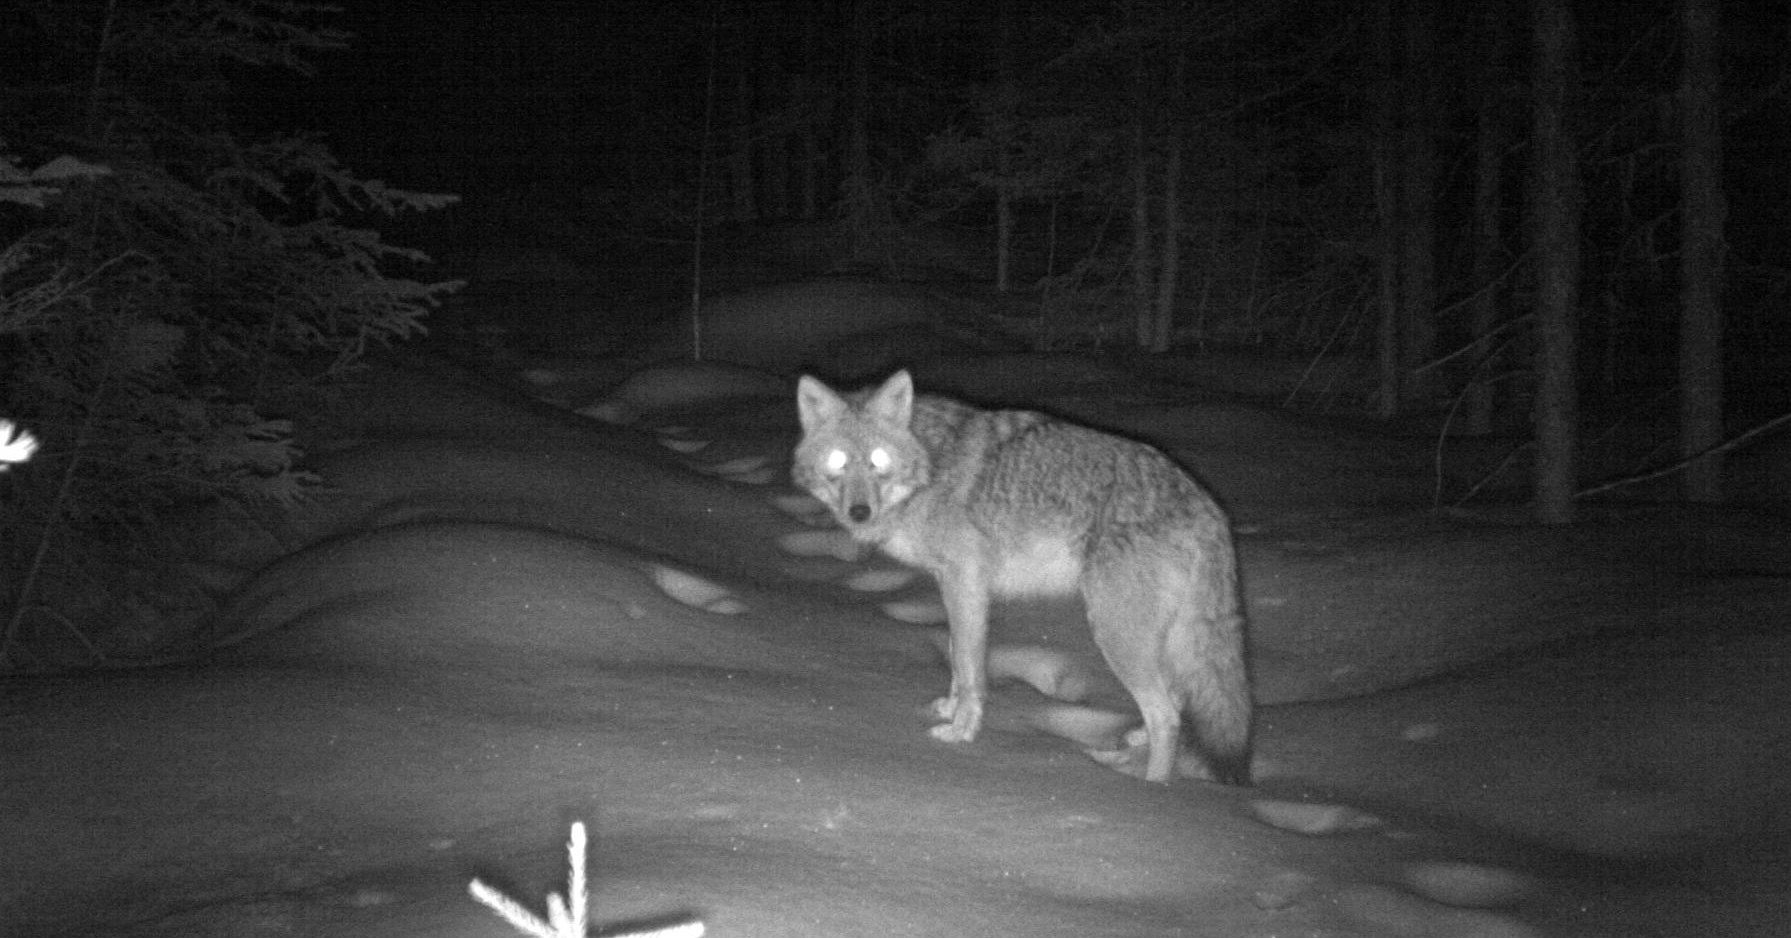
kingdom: Animalia
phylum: Chordata
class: Mammalia
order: Carnivora
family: Canidae
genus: Canis
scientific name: Canis latrans
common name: Coyote
